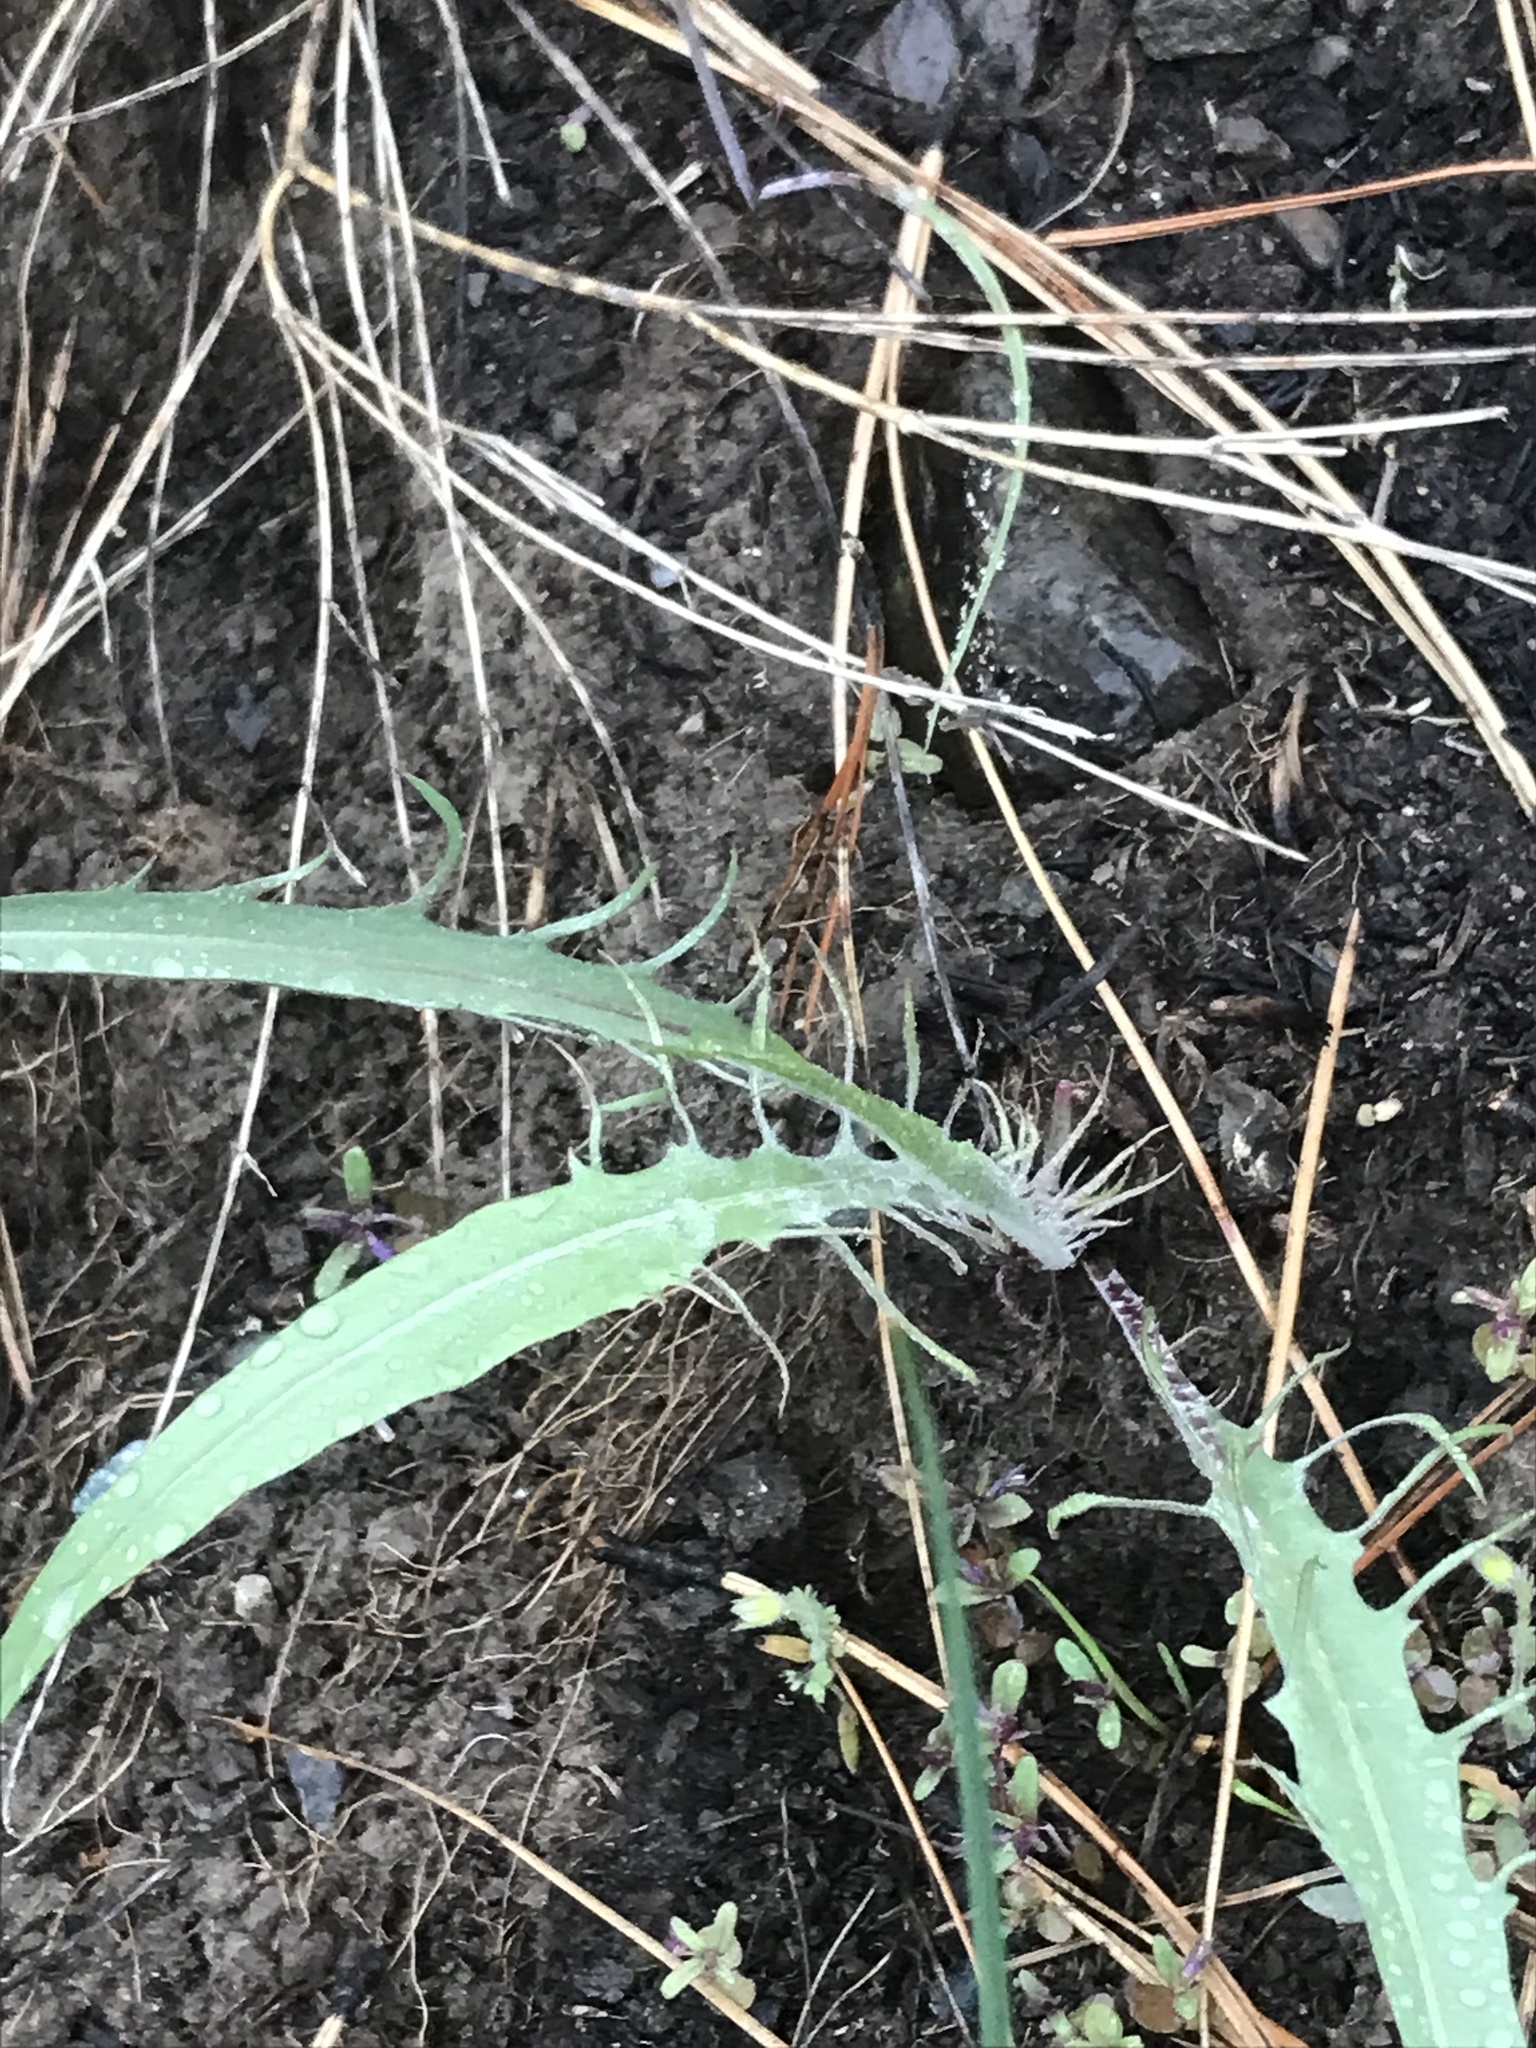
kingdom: Plantae
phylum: Tracheophyta
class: Magnoliopsida
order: Asterales
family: Asteraceae
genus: Crepis
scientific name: Crepis atribarba
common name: Dark hawk's-beard
